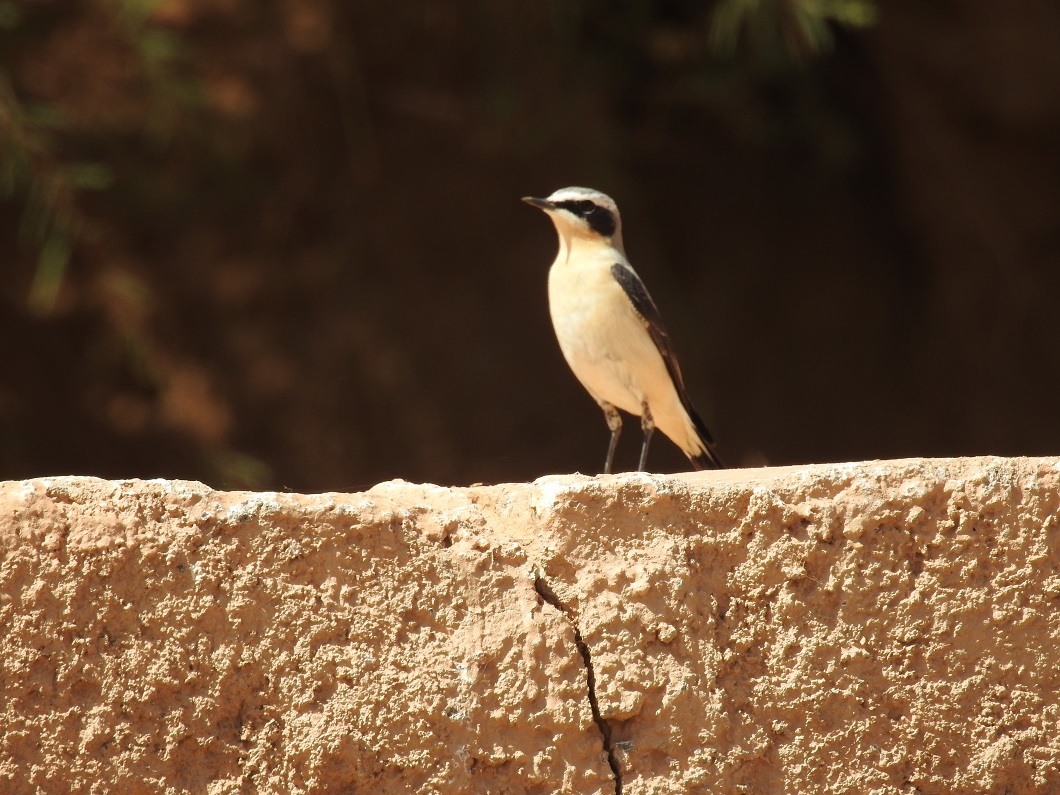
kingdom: Animalia
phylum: Chordata
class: Aves
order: Passeriformes
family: Muscicapidae
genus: Oenanthe
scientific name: Oenanthe oenanthe
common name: Northern wheatear
